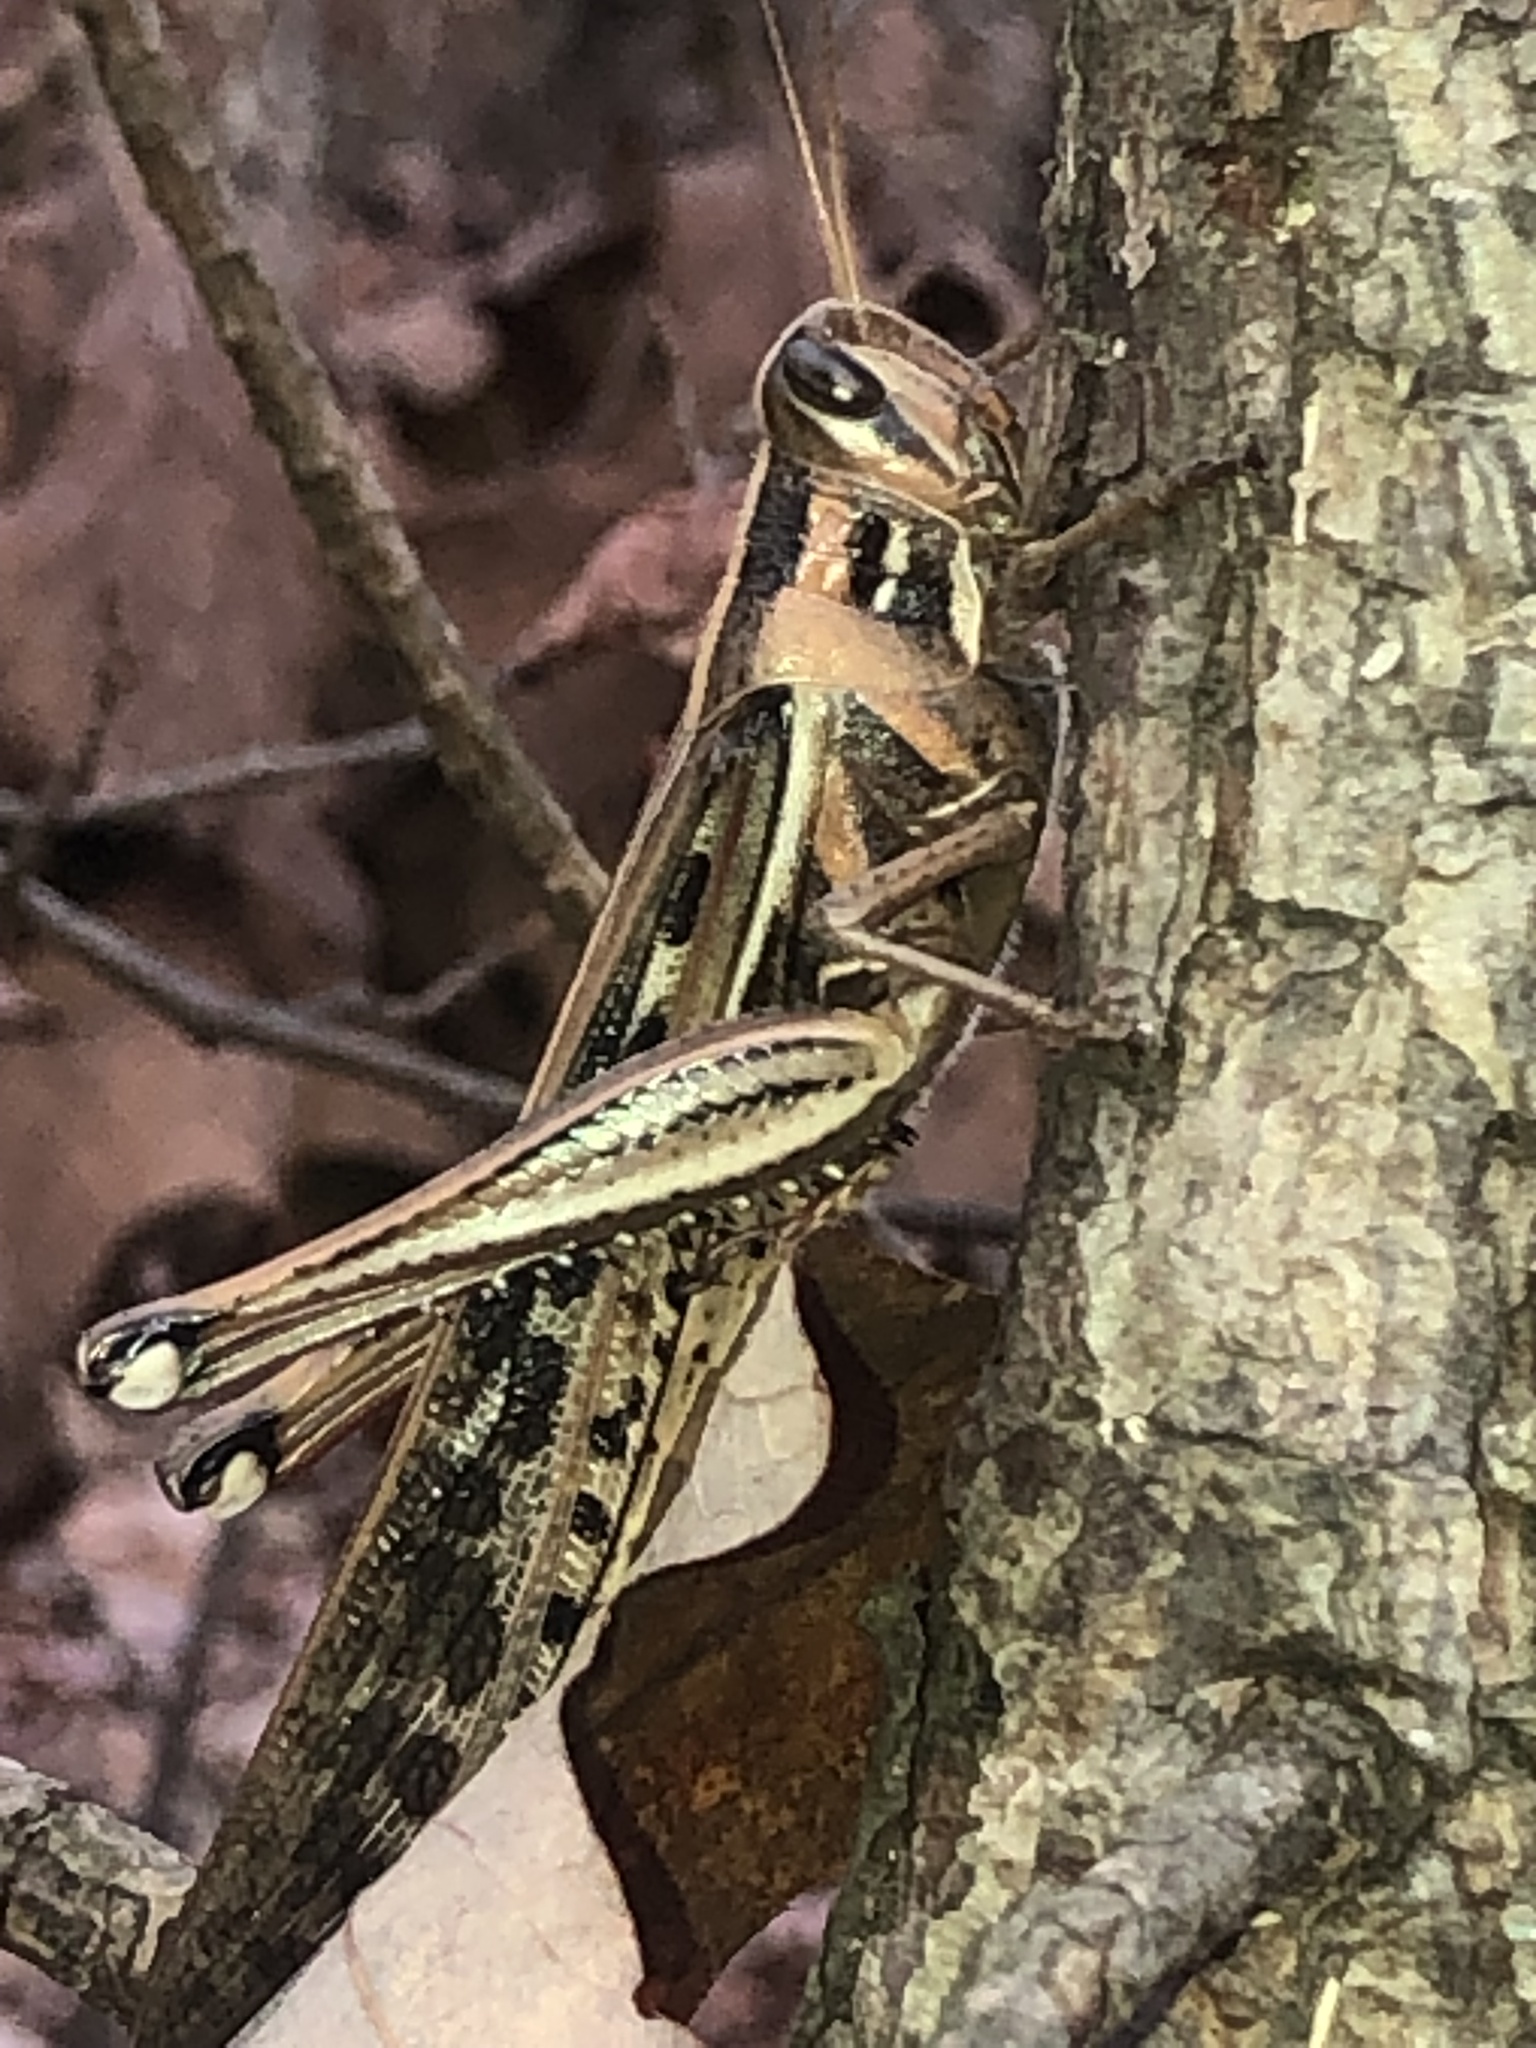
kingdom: Animalia
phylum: Arthropoda
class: Insecta
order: Orthoptera
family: Acrididae
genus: Schistocerca
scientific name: Schistocerca americana
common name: American bird locust
